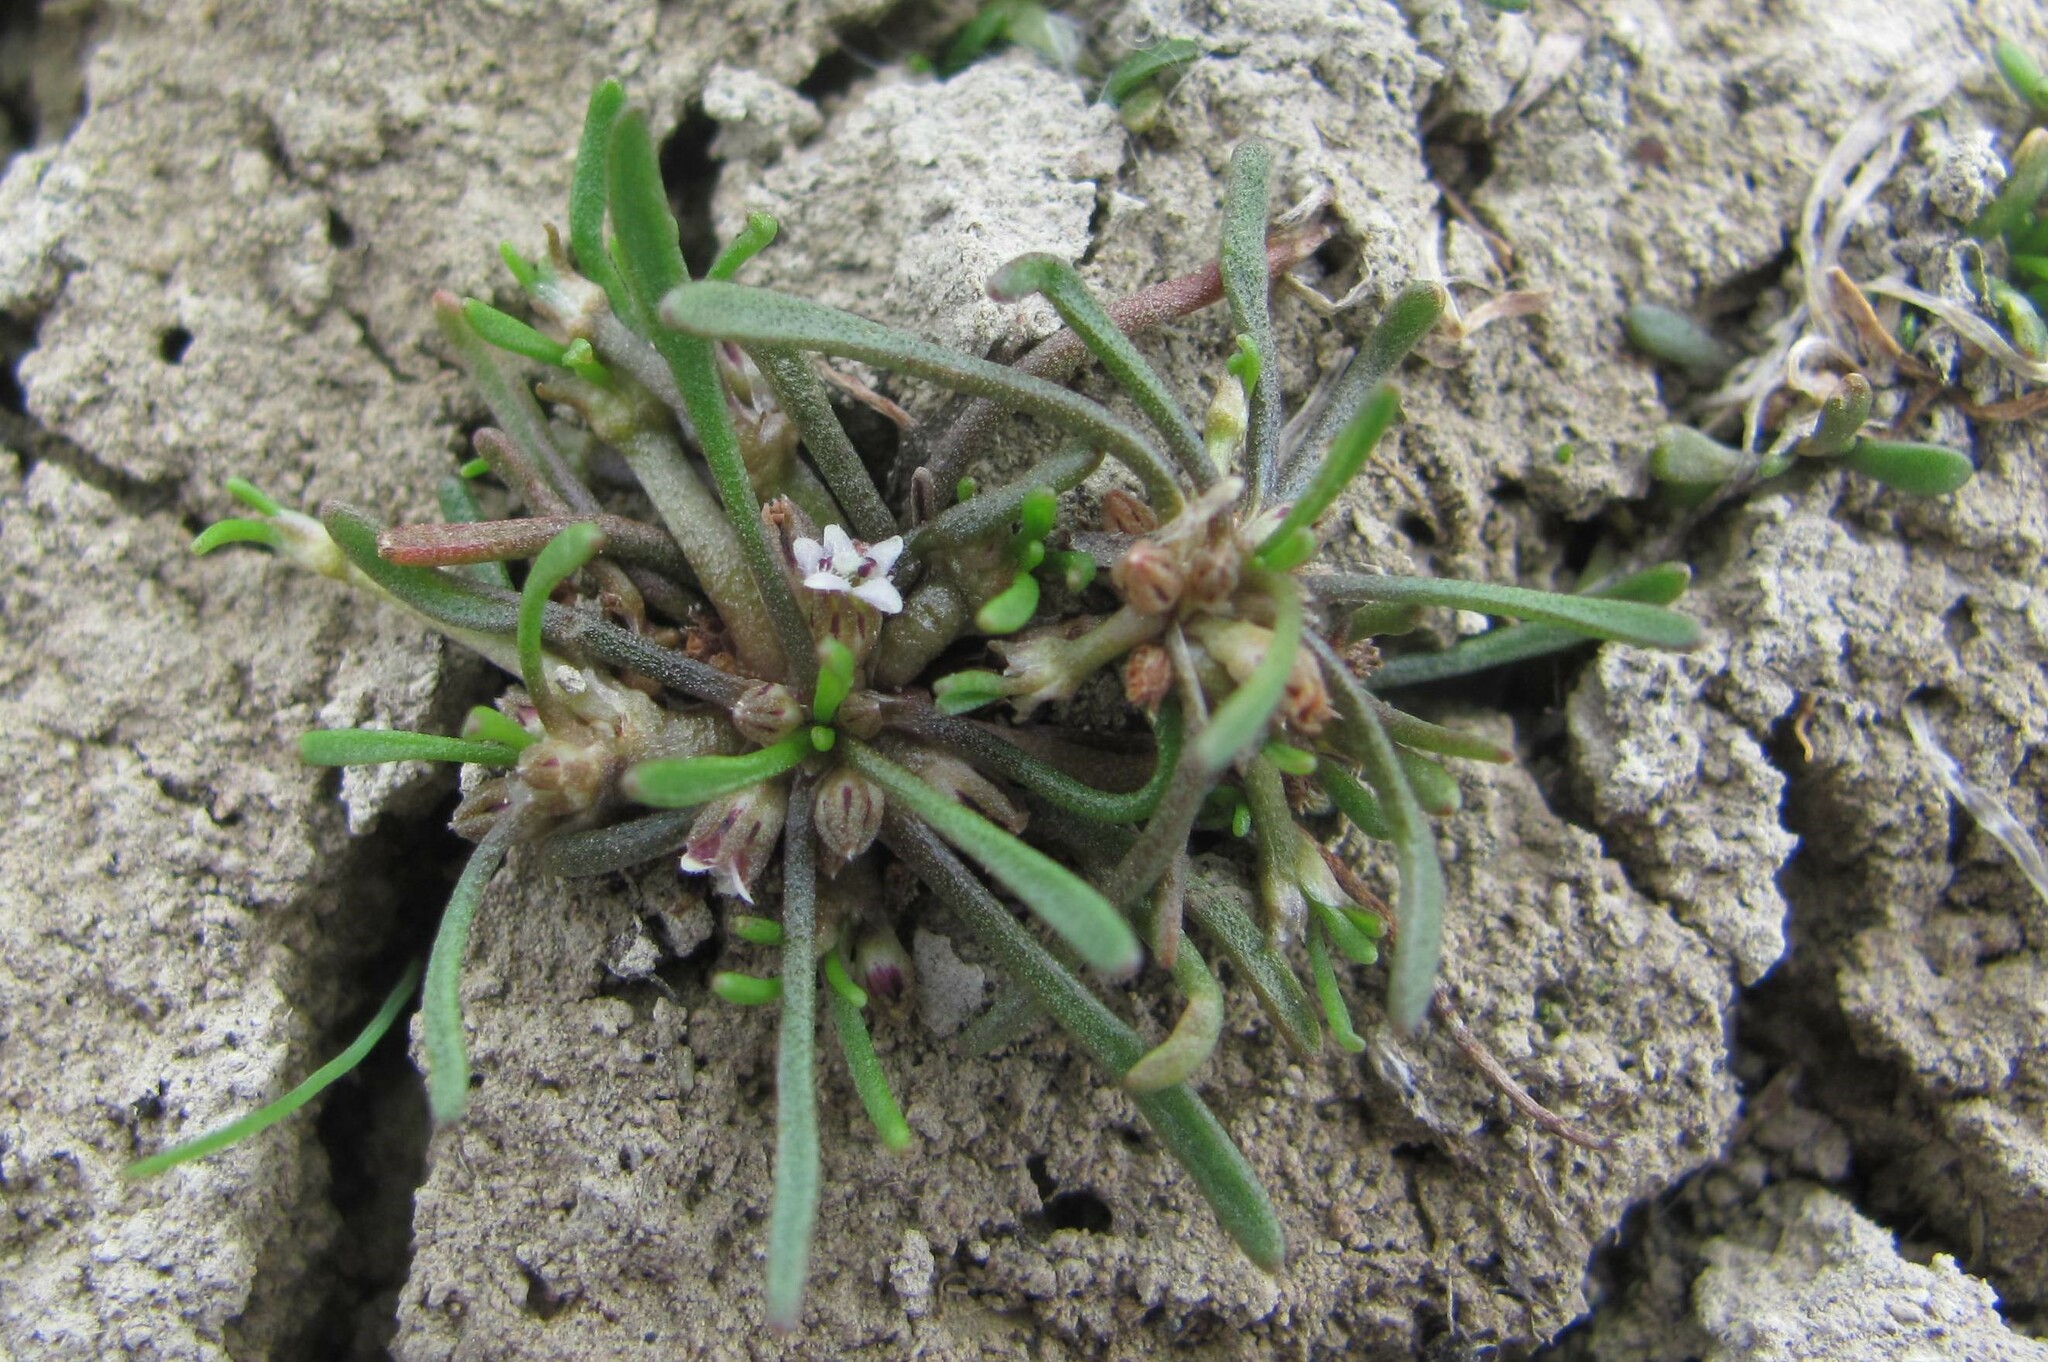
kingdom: Plantae
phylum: Tracheophyta
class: Magnoliopsida
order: Lamiales
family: Scrophulariaceae
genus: Limosella
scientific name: Limosella australis
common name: Welsh mudwort
